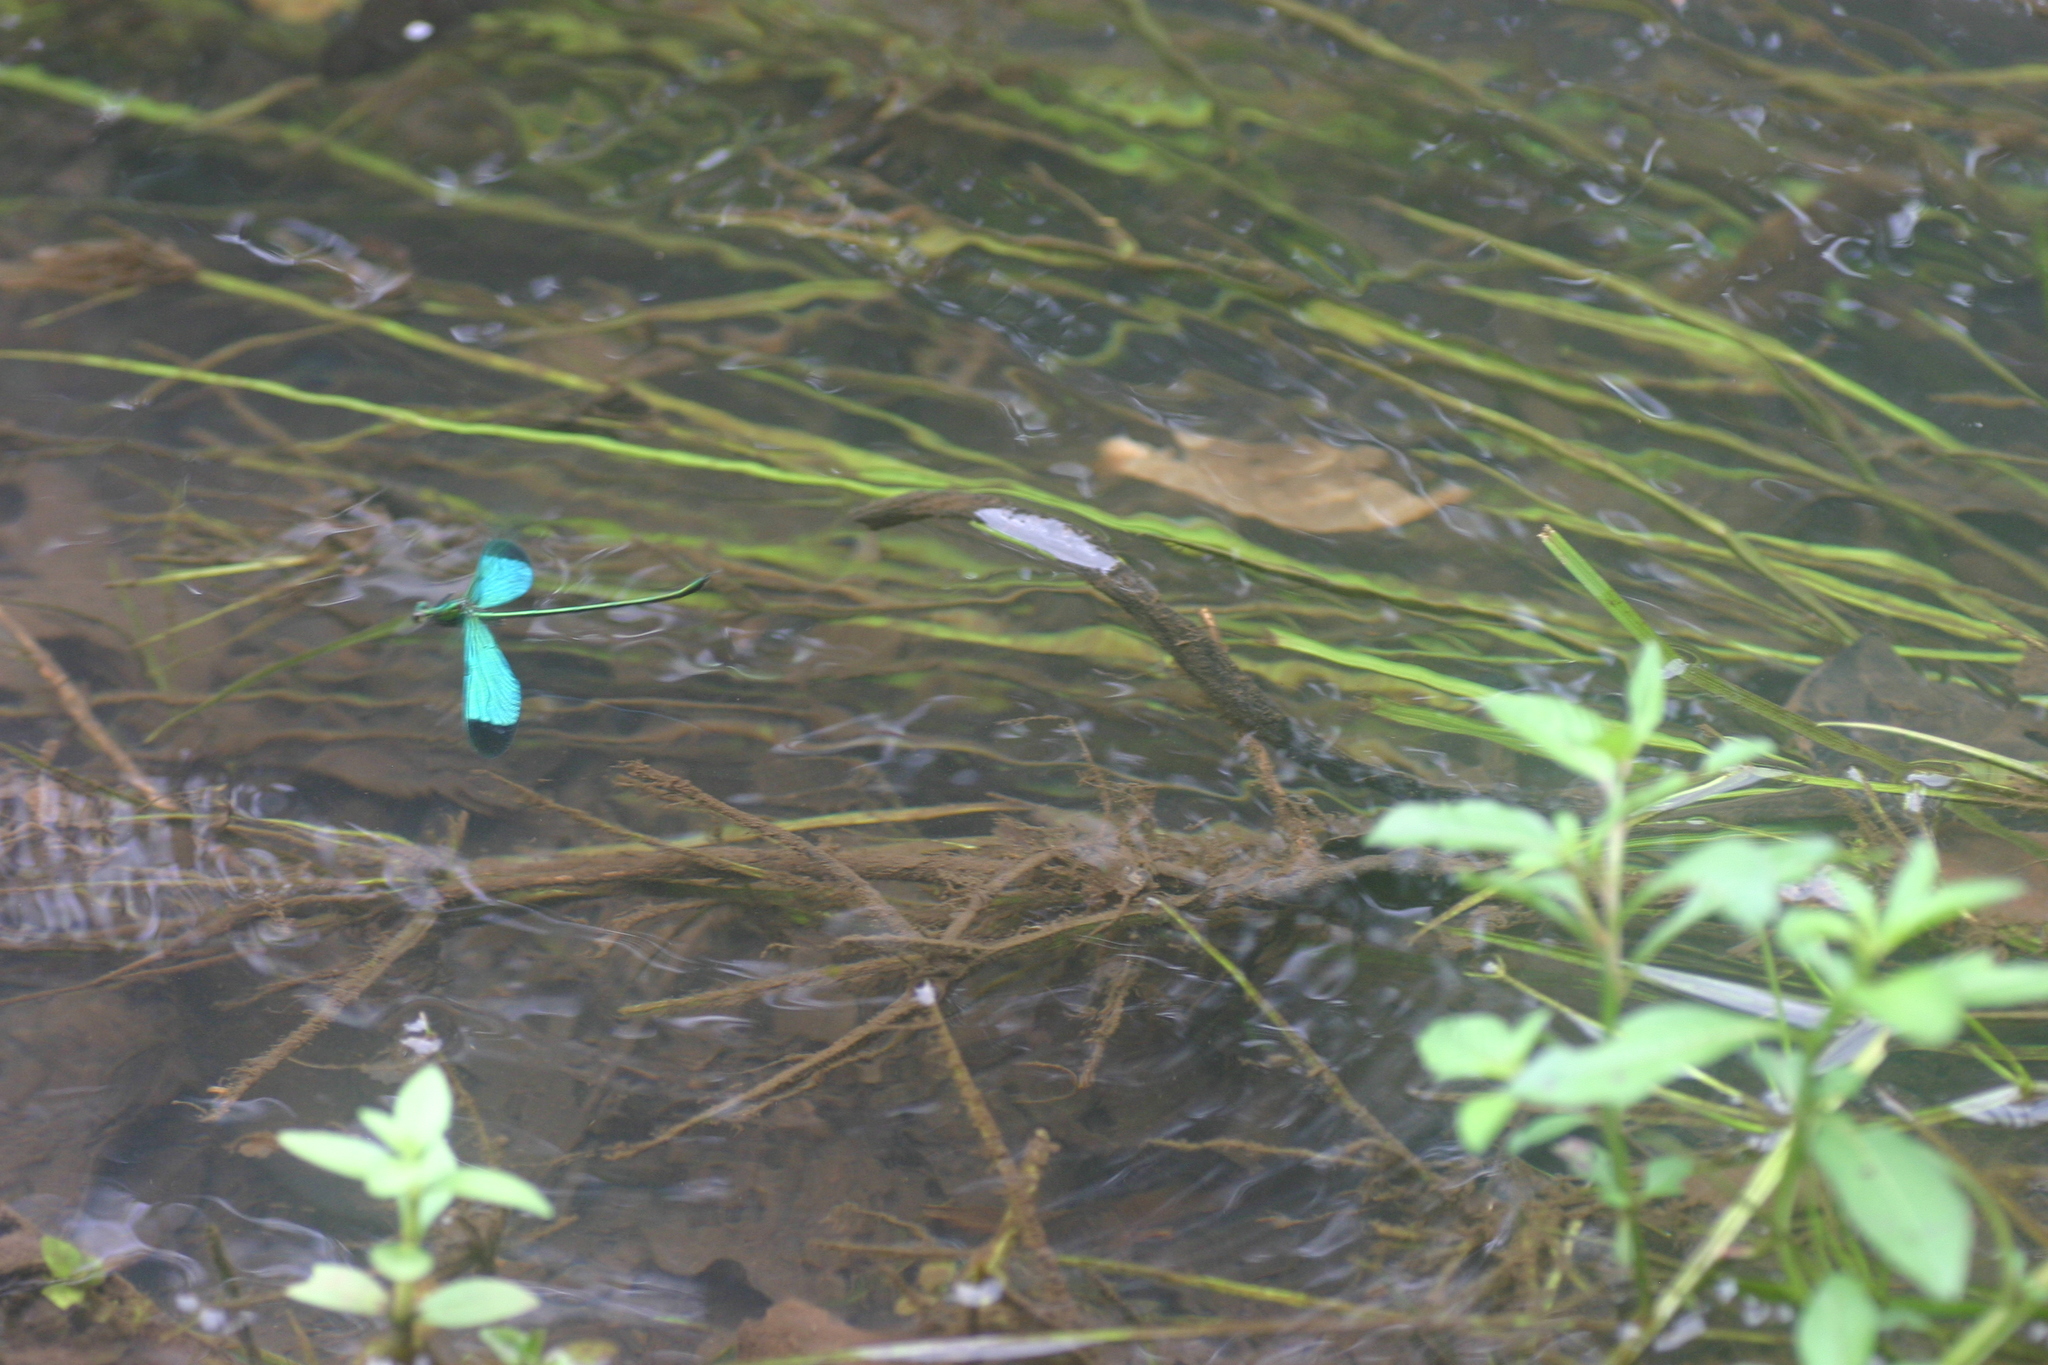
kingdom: Animalia
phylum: Arthropoda
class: Insecta
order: Odonata
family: Calopterygidae
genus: Neurobasis
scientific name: Neurobasis chinensis
